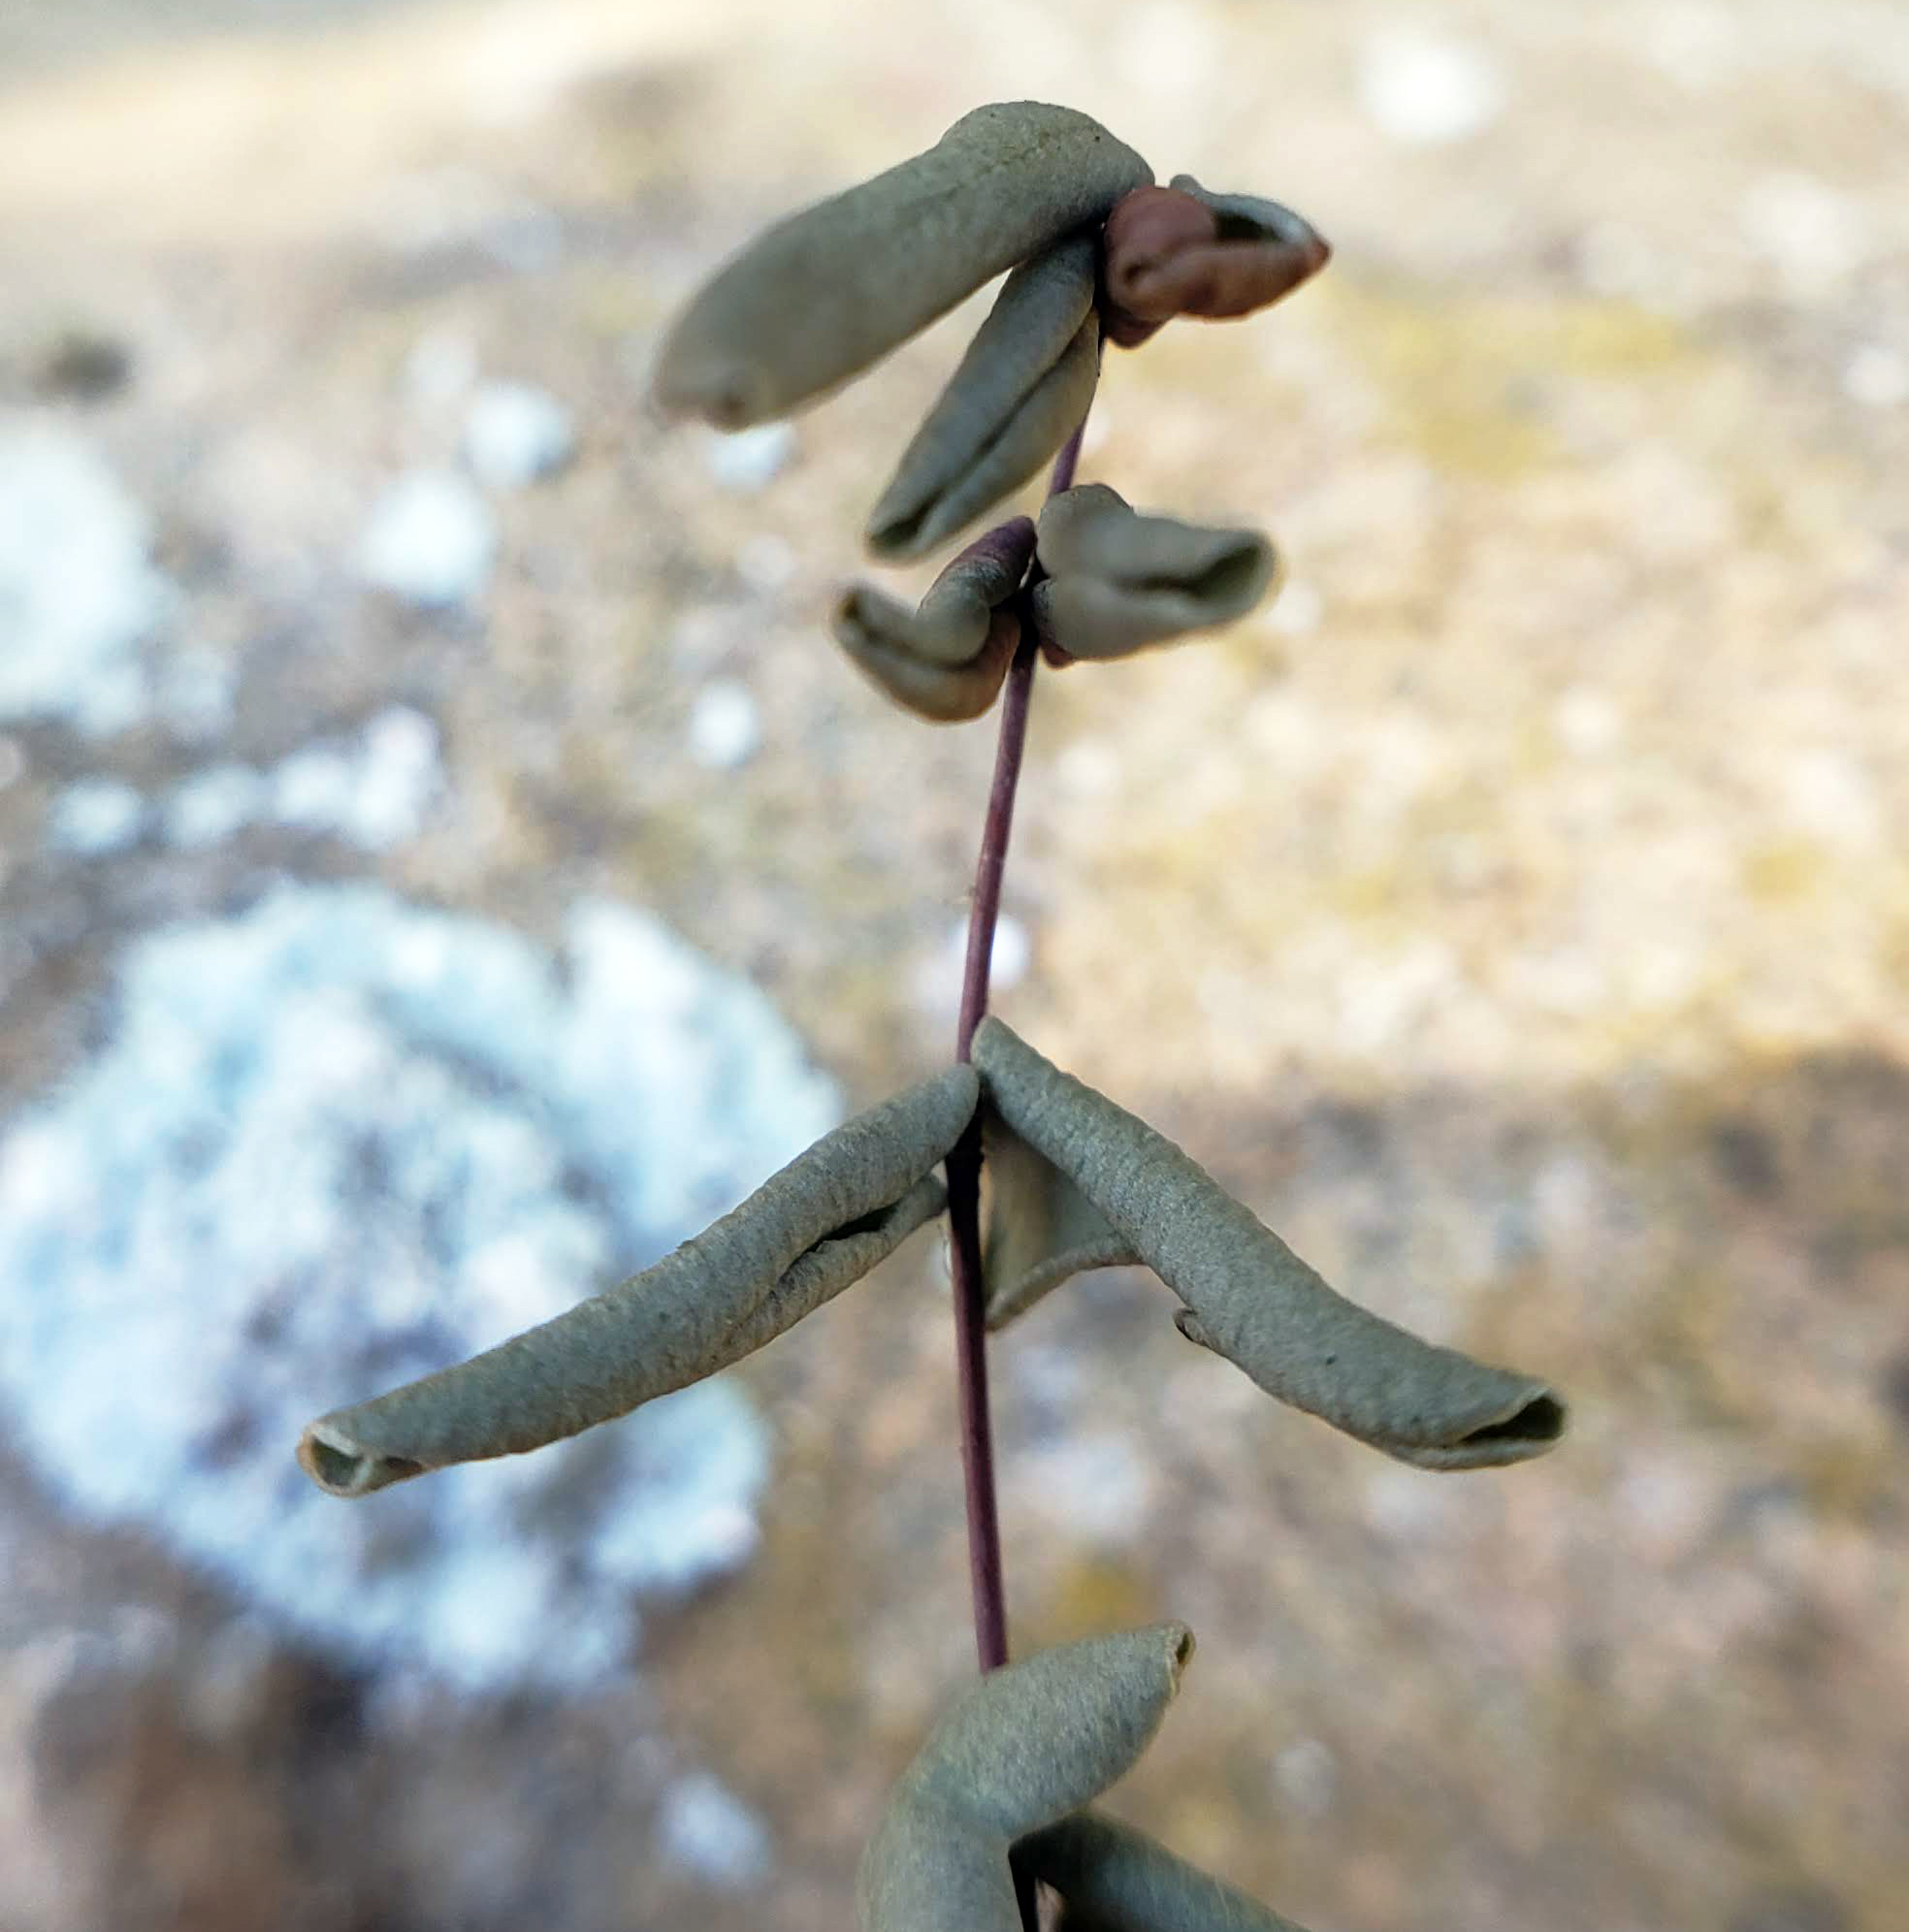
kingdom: Plantae
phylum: Tracheophyta
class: Polypodiopsida
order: Polypodiales
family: Pteridaceae
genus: Pellaea
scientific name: Pellaea glabella
